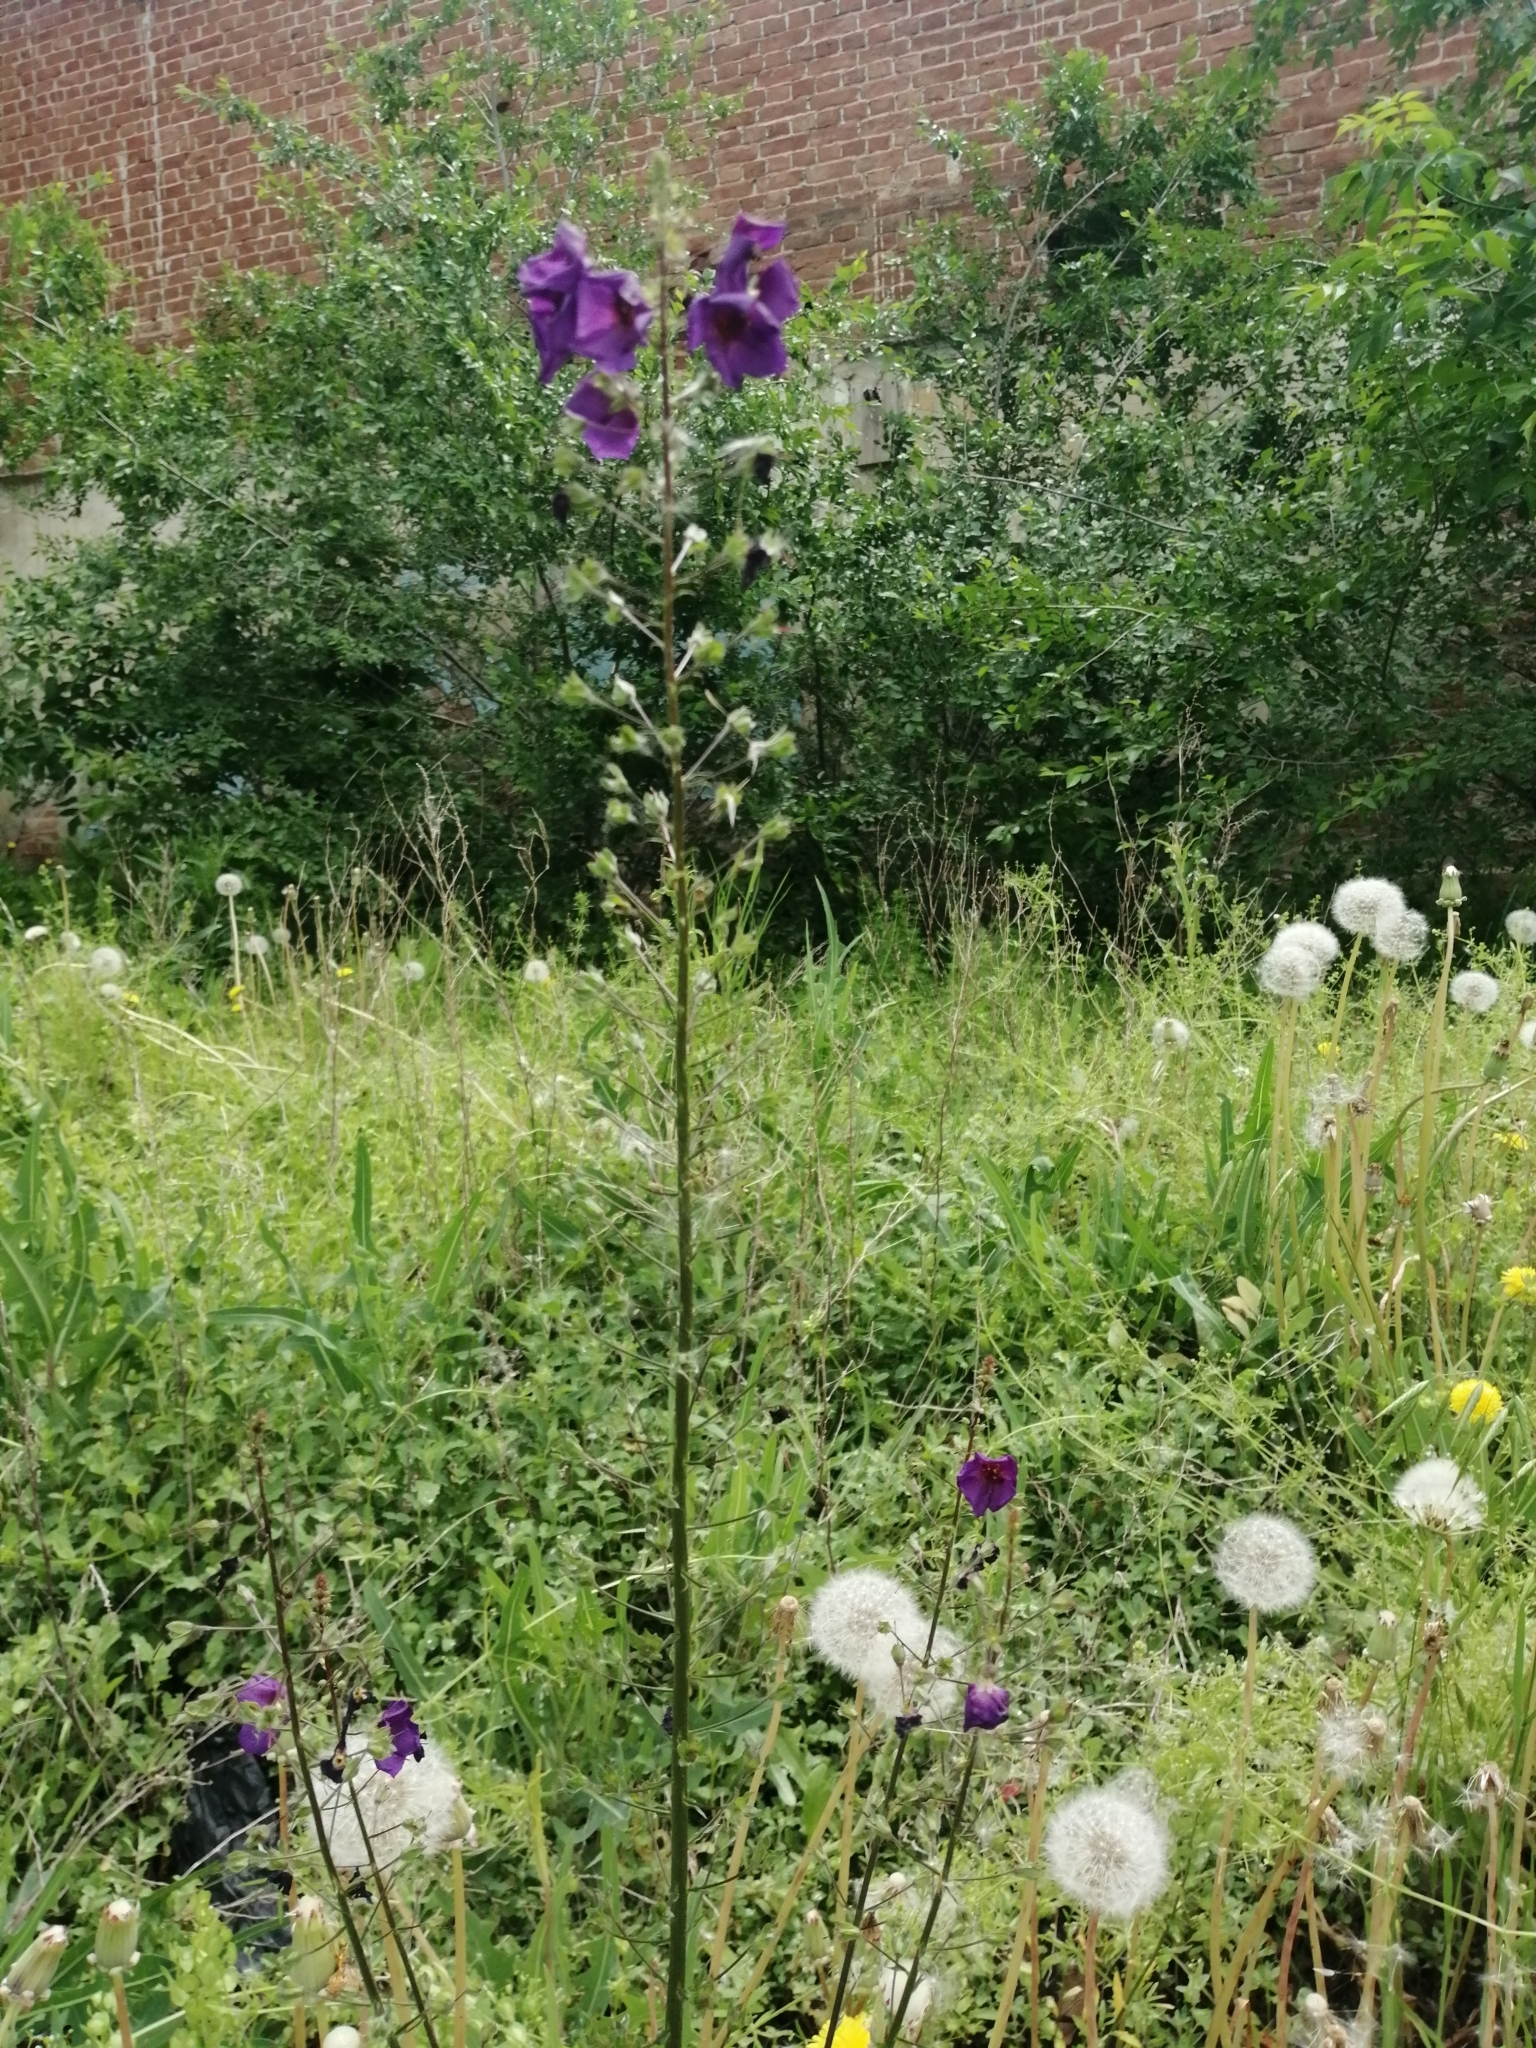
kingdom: Plantae
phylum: Tracheophyta
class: Magnoliopsida
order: Lamiales
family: Scrophulariaceae
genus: Verbascum
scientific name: Verbascum phoeniceum
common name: Purple mullein
